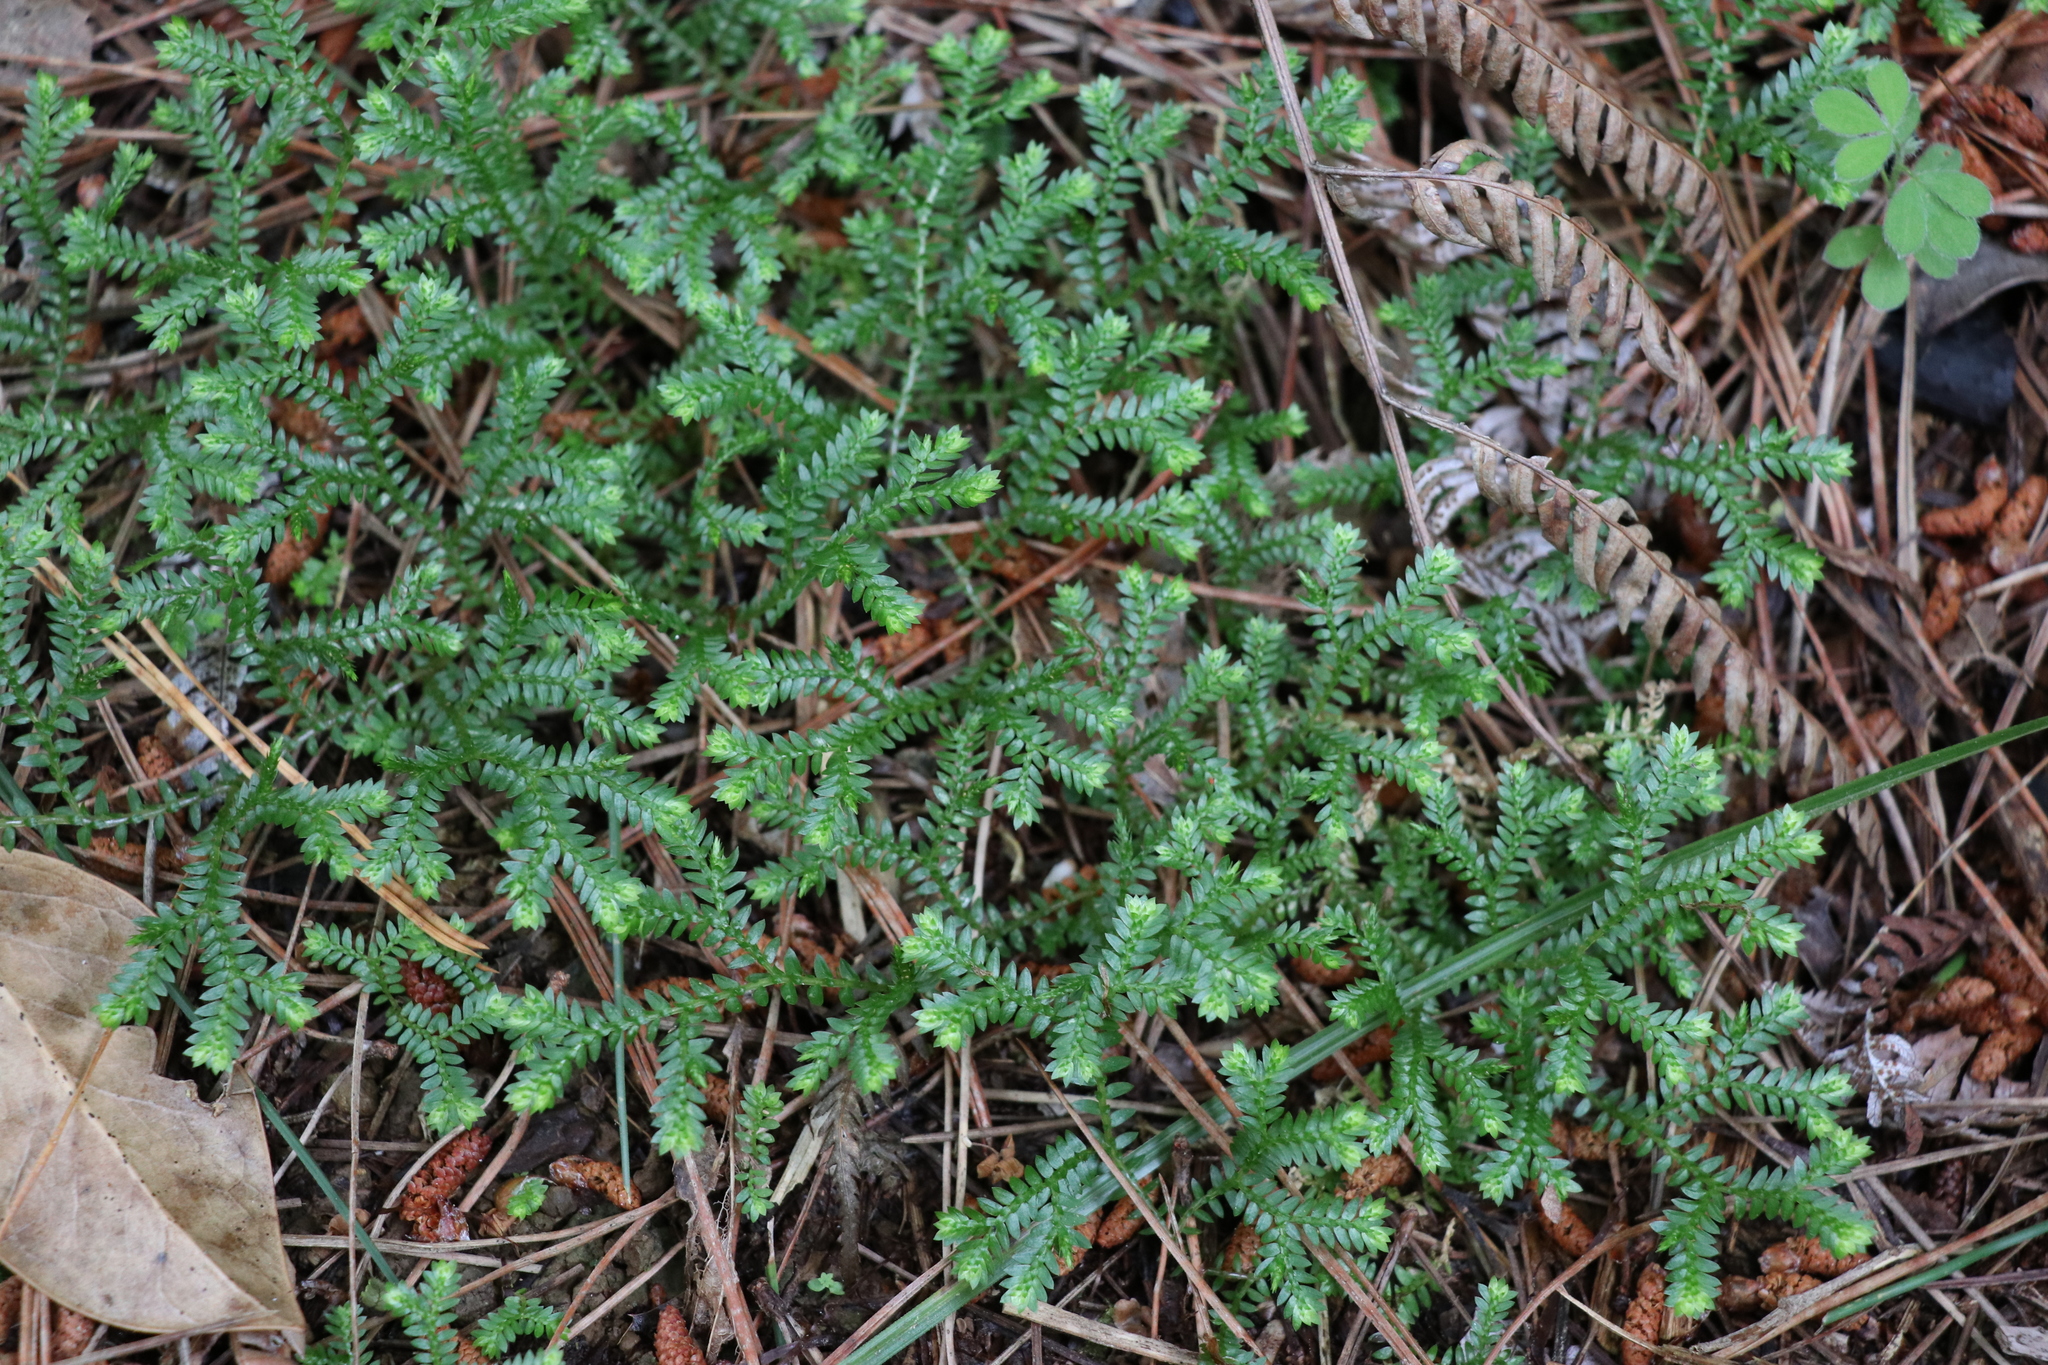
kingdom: Plantae
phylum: Tracheophyta
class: Lycopodiopsida
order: Selaginellales
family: Selaginellaceae
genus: Selaginella
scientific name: Selaginella kraussiana
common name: Krauss' spikemoss
